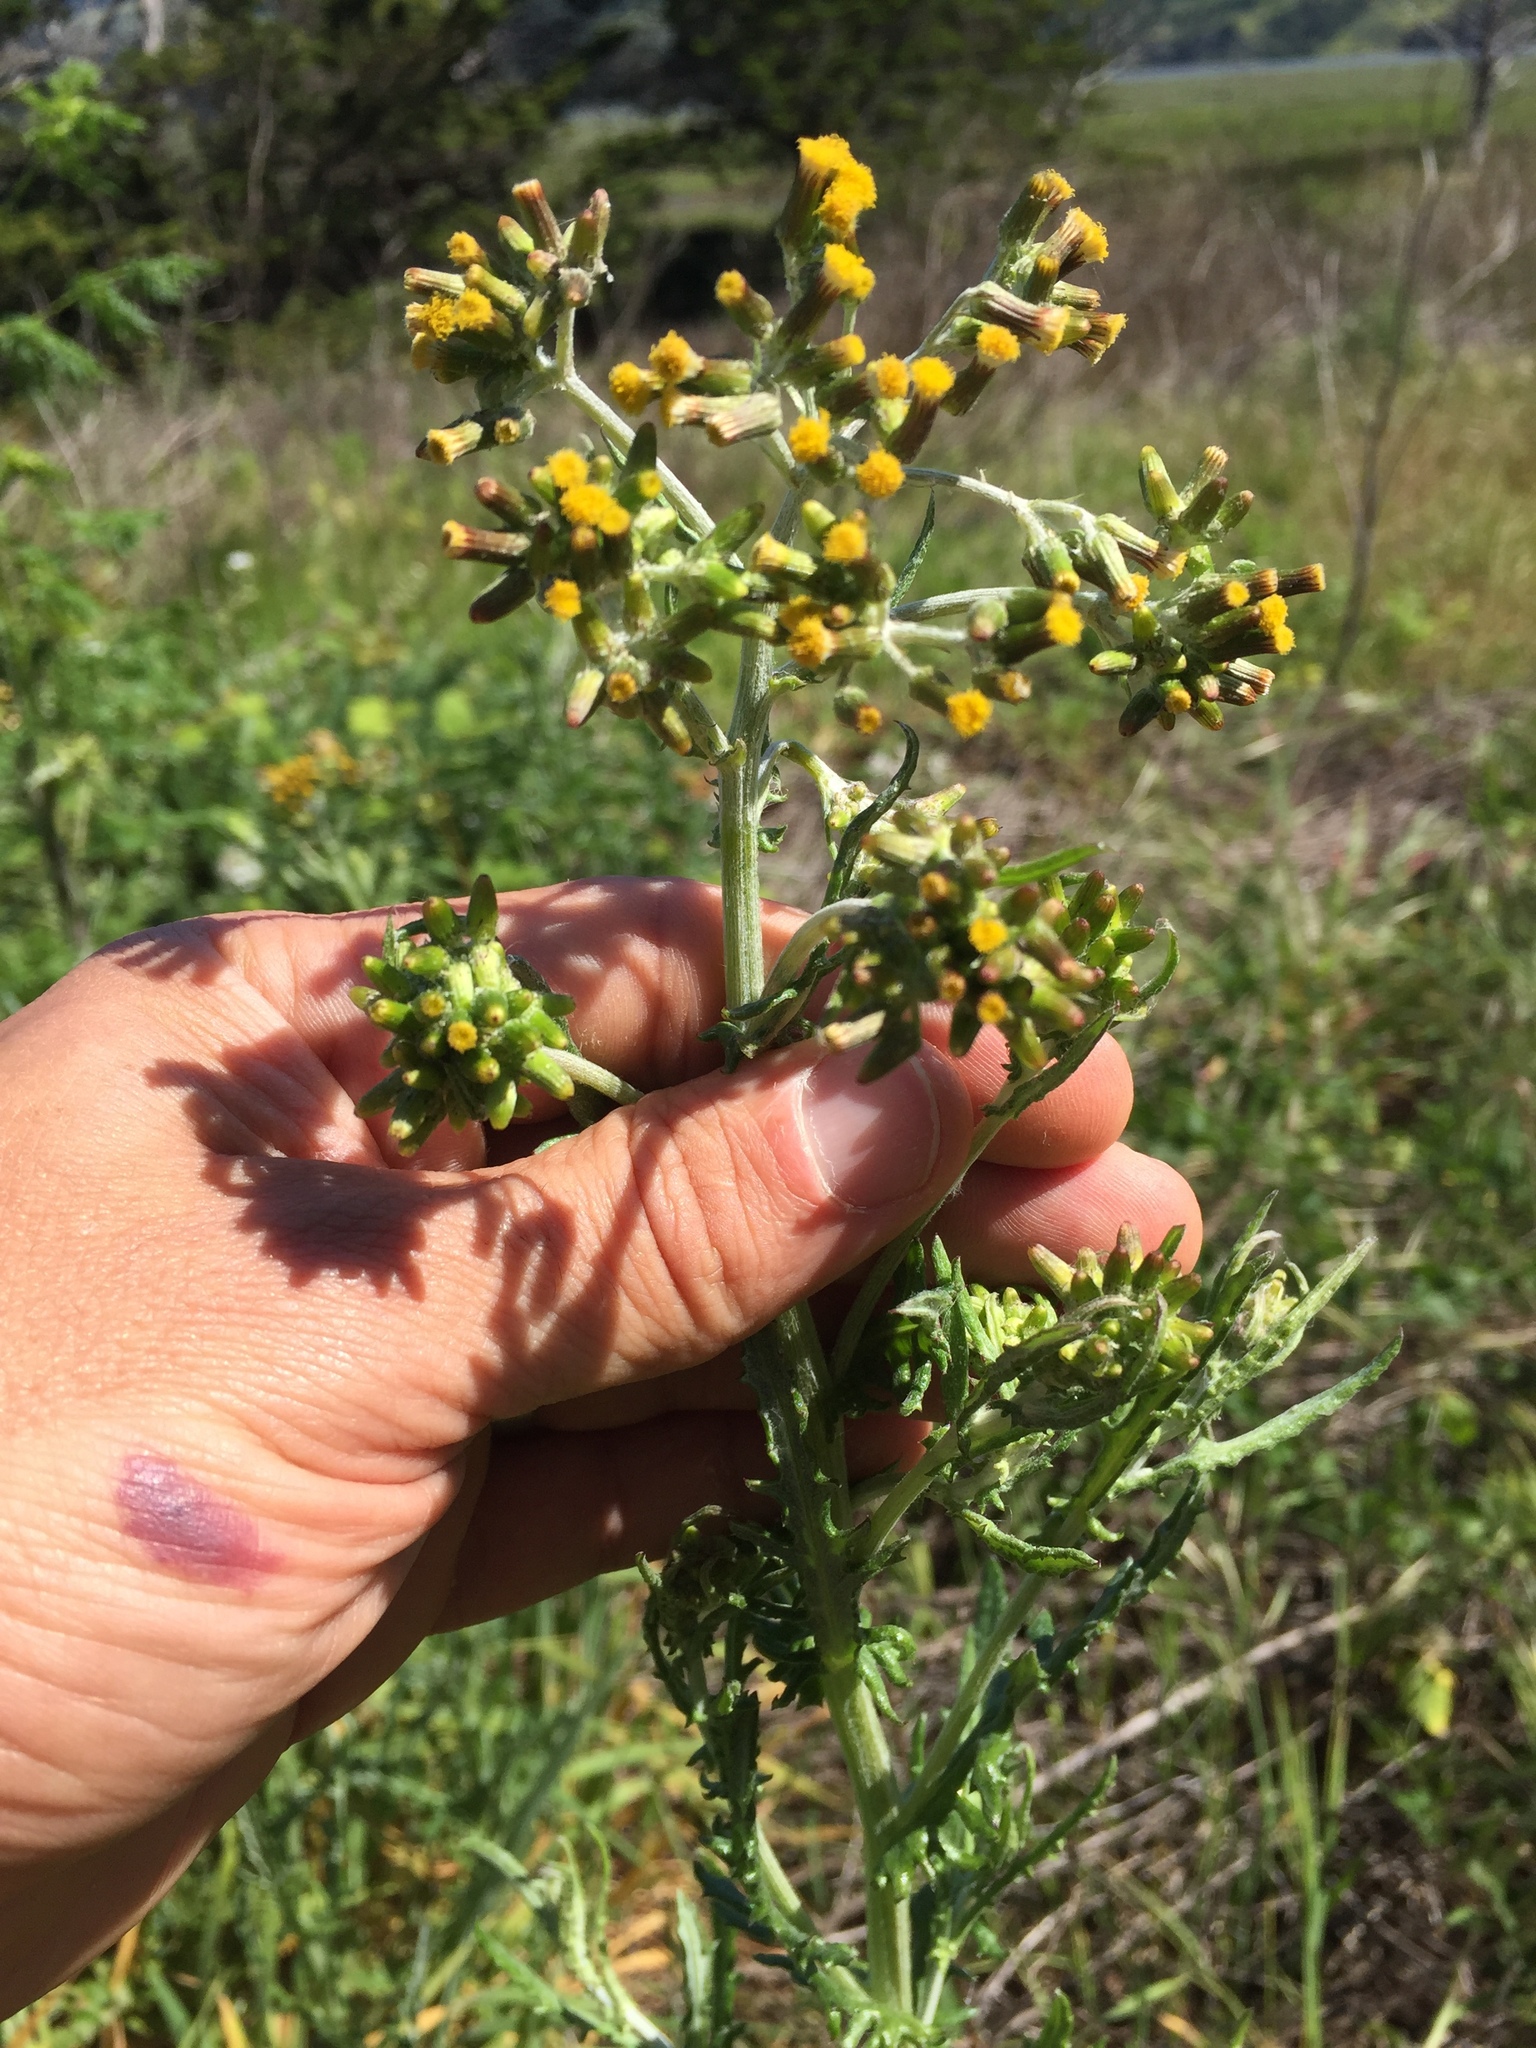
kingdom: Plantae
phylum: Tracheophyta
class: Magnoliopsida
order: Asterales
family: Asteraceae
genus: Senecio
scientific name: Senecio glomeratus
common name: Cutleaf burnweed
